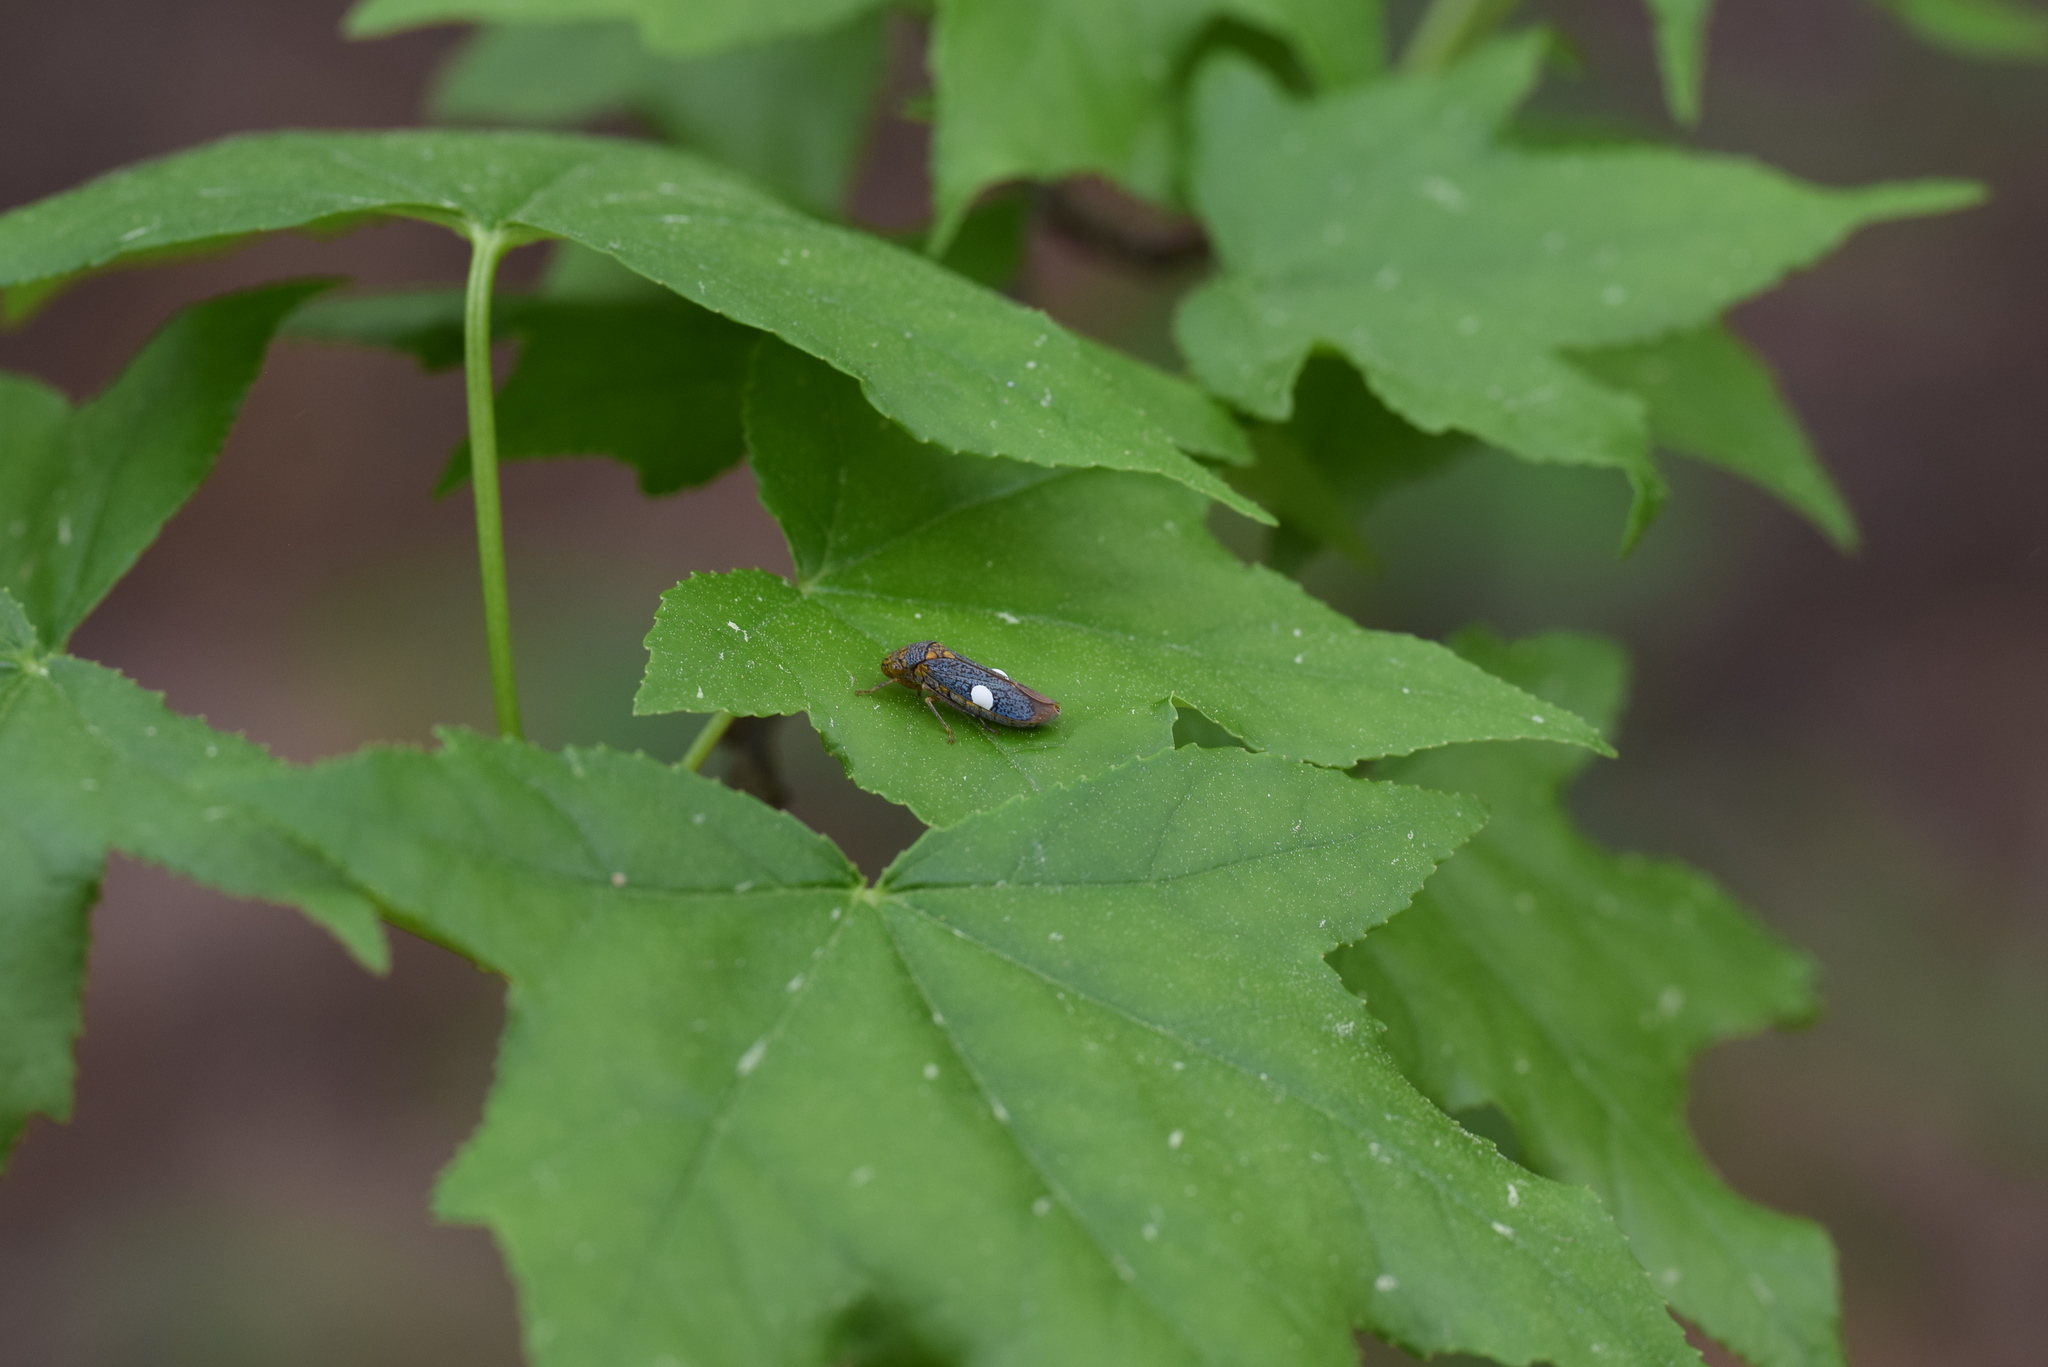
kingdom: Animalia
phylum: Arthropoda
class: Insecta
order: Hemiptera
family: Cicadellidae
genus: Oncometopia
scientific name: Oncometopia orbona
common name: Broad-headed sharpshooter
